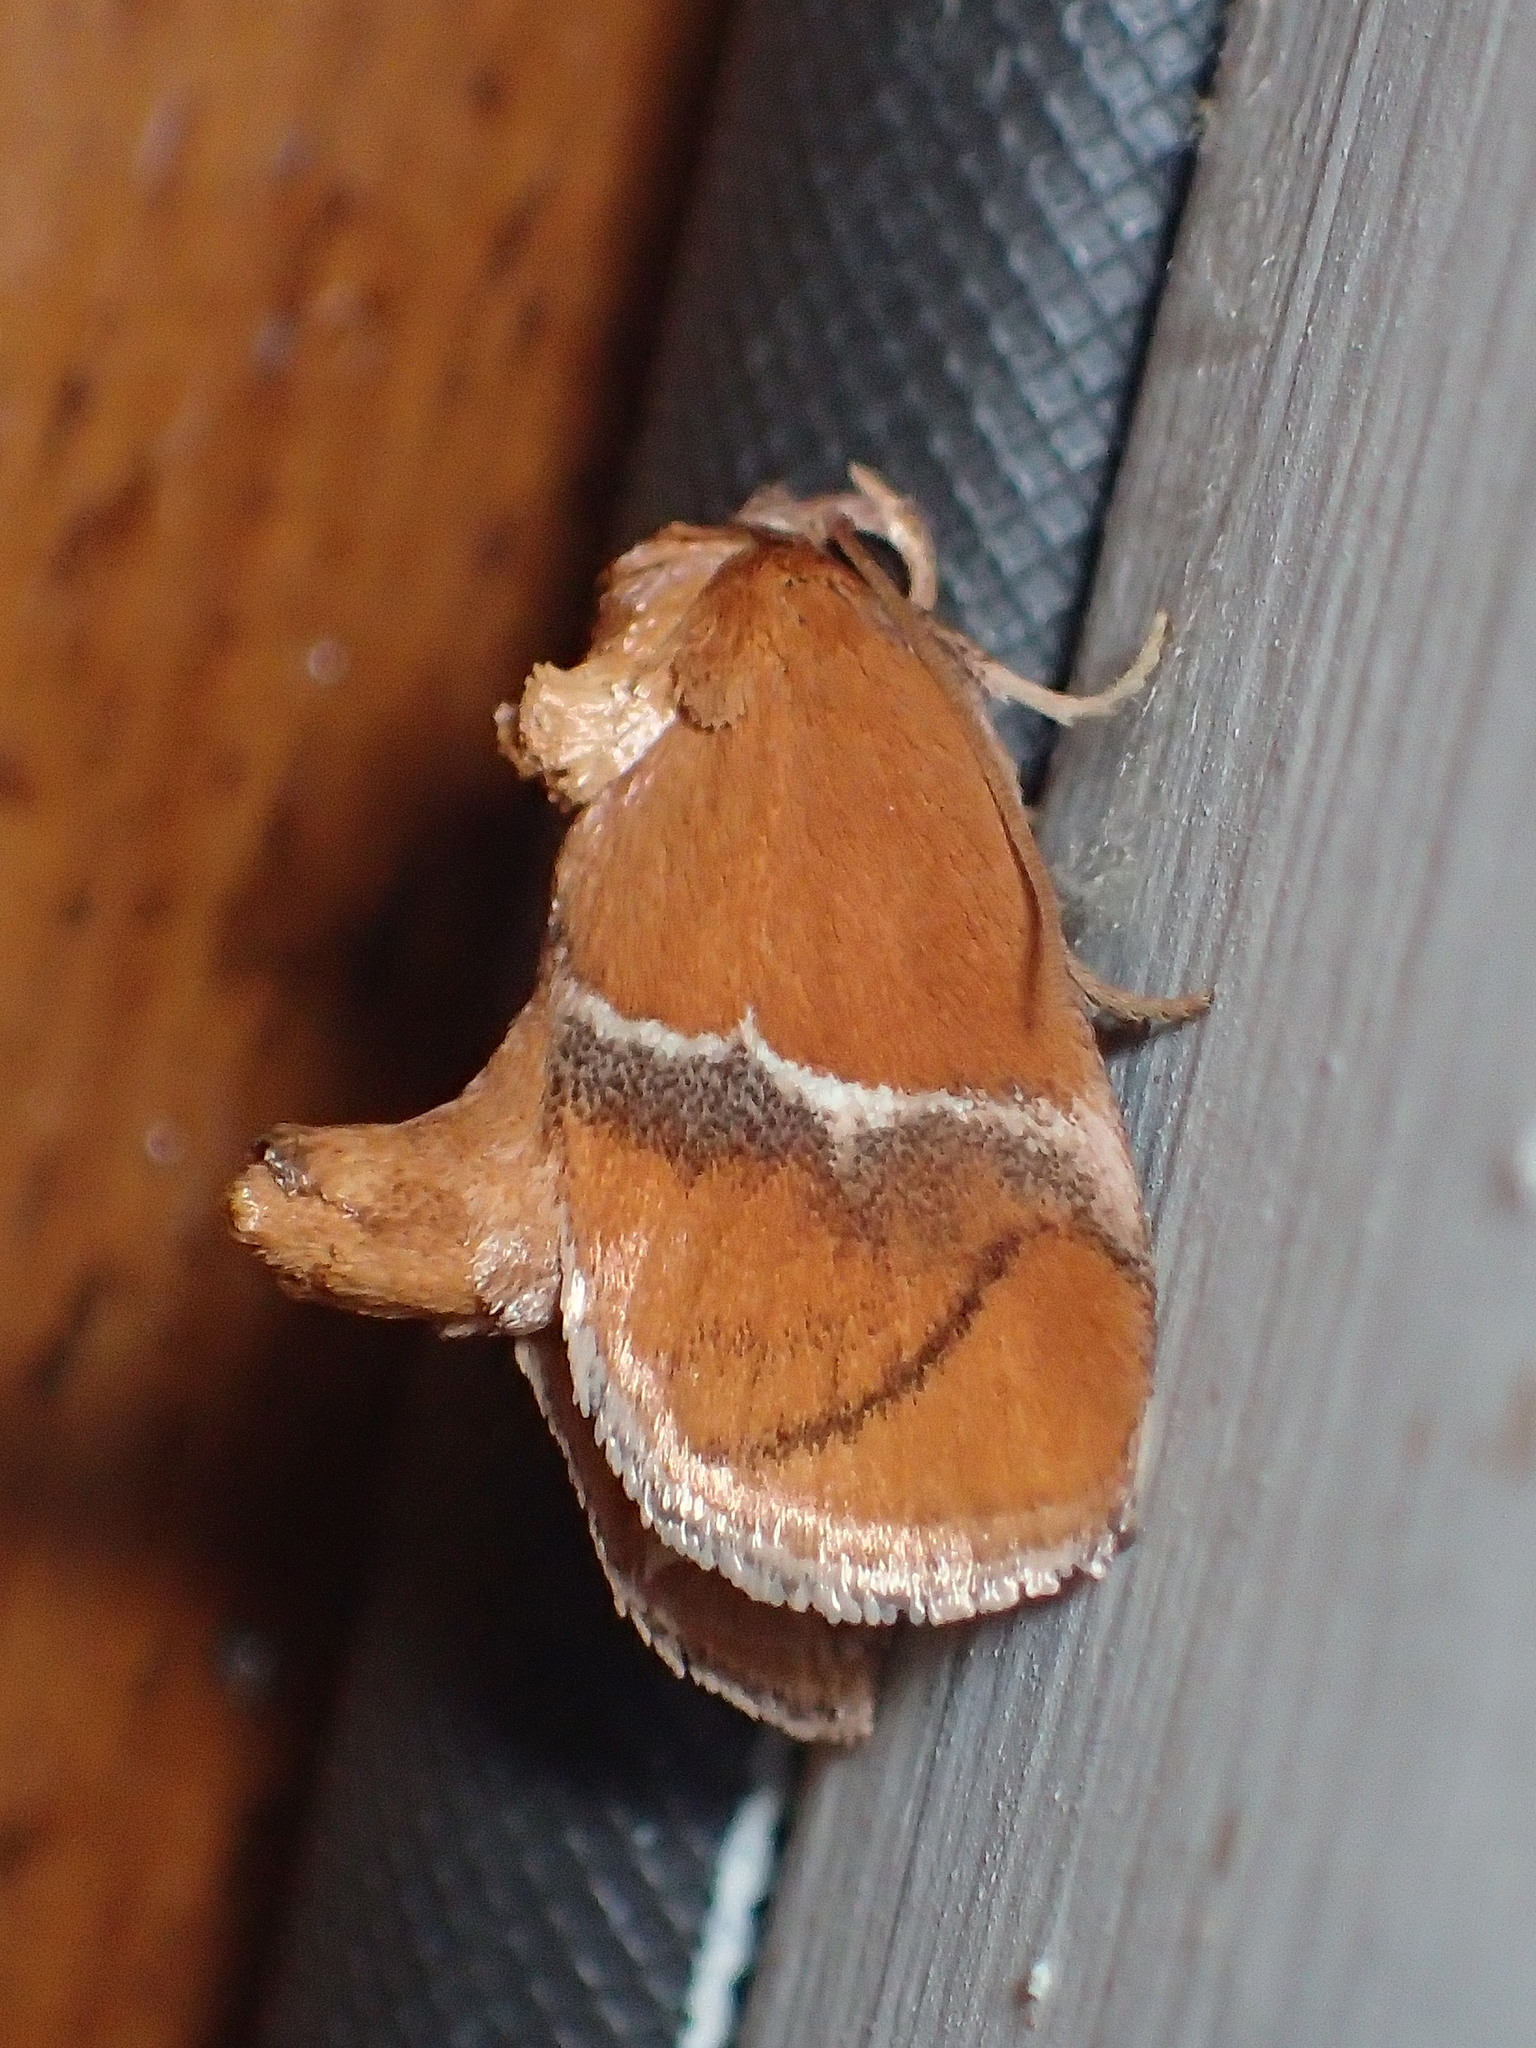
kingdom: Animalia
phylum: Arthropoda
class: Insecta
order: Lepidoptera
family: Limacodidae
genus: Lithacodes
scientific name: Lithacodes fasciola
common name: Yellow-shouldered slug moth
